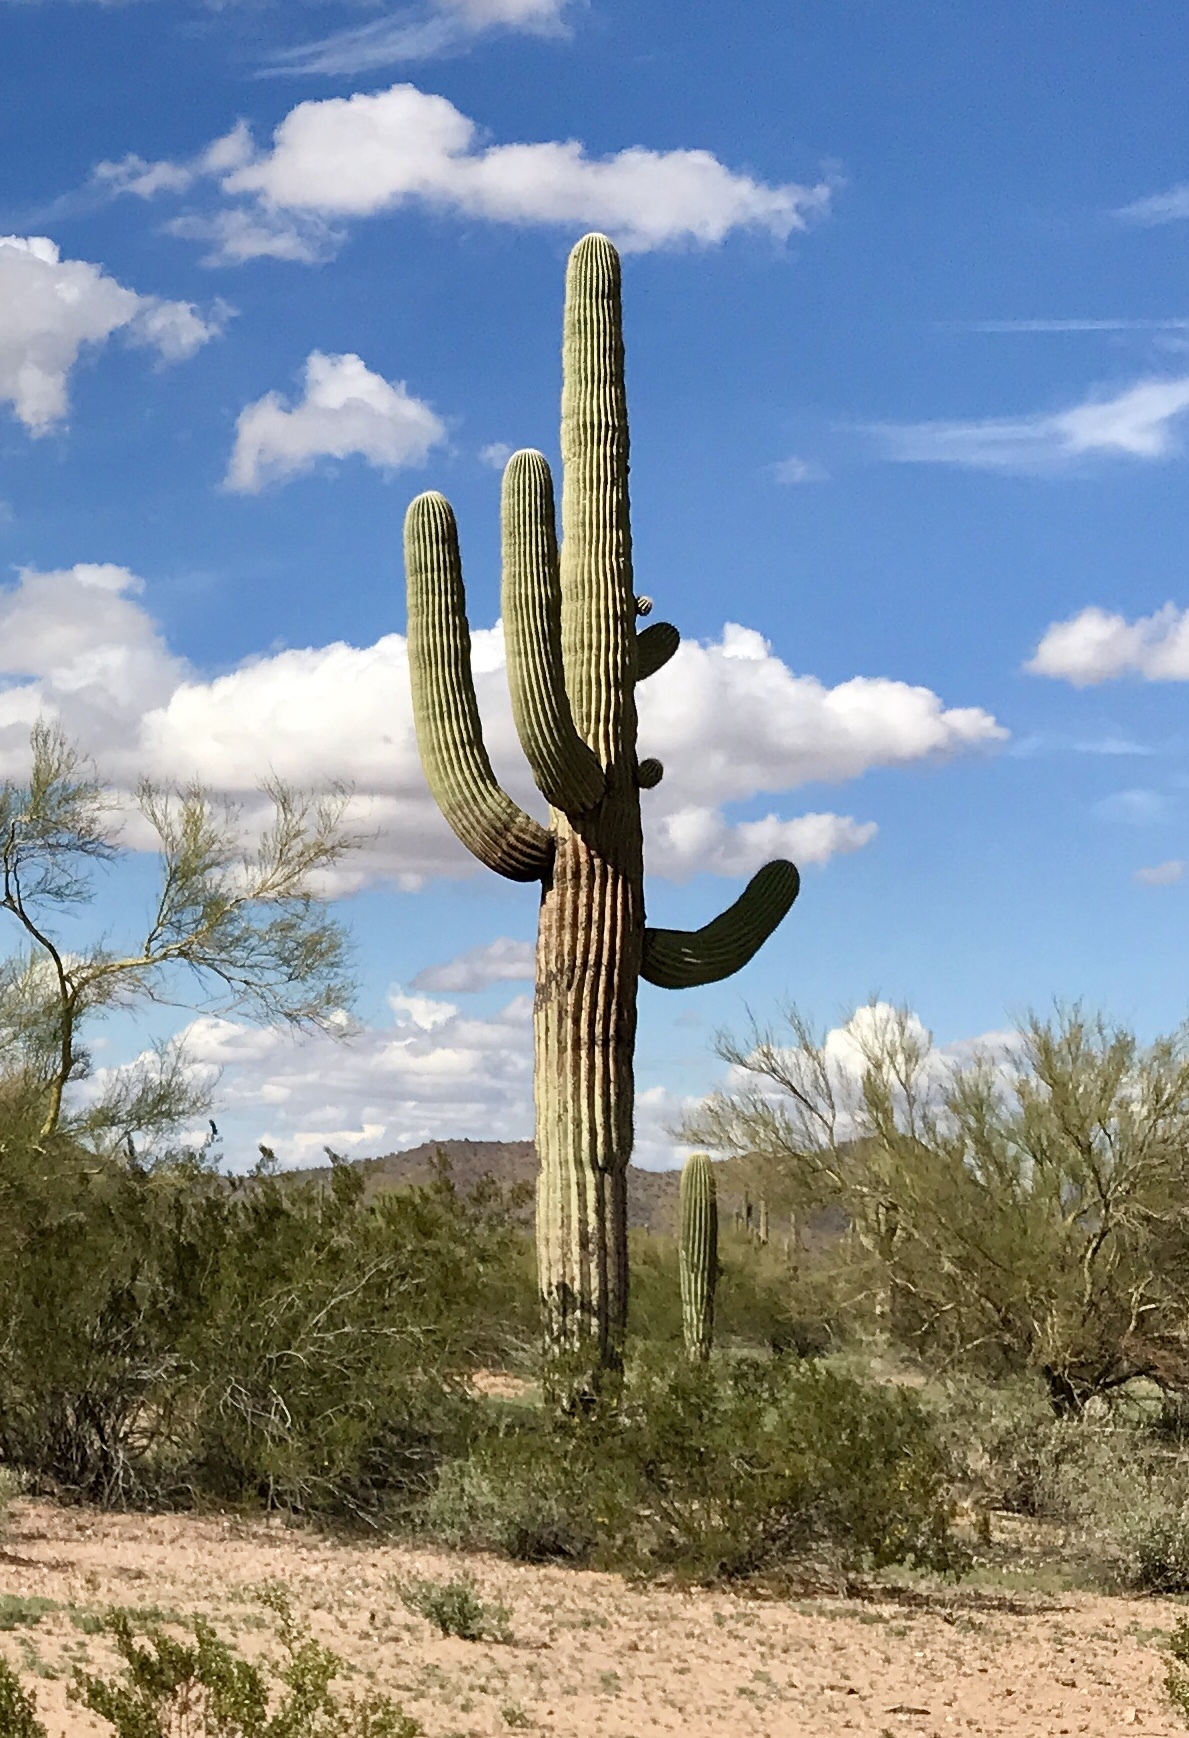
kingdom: Plantae
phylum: Tracheophyta
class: Magnoliopsida
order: Caryophyllales
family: Cactaceae
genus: Carnegiea
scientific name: Carnegiea gigantea
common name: Saguaro
